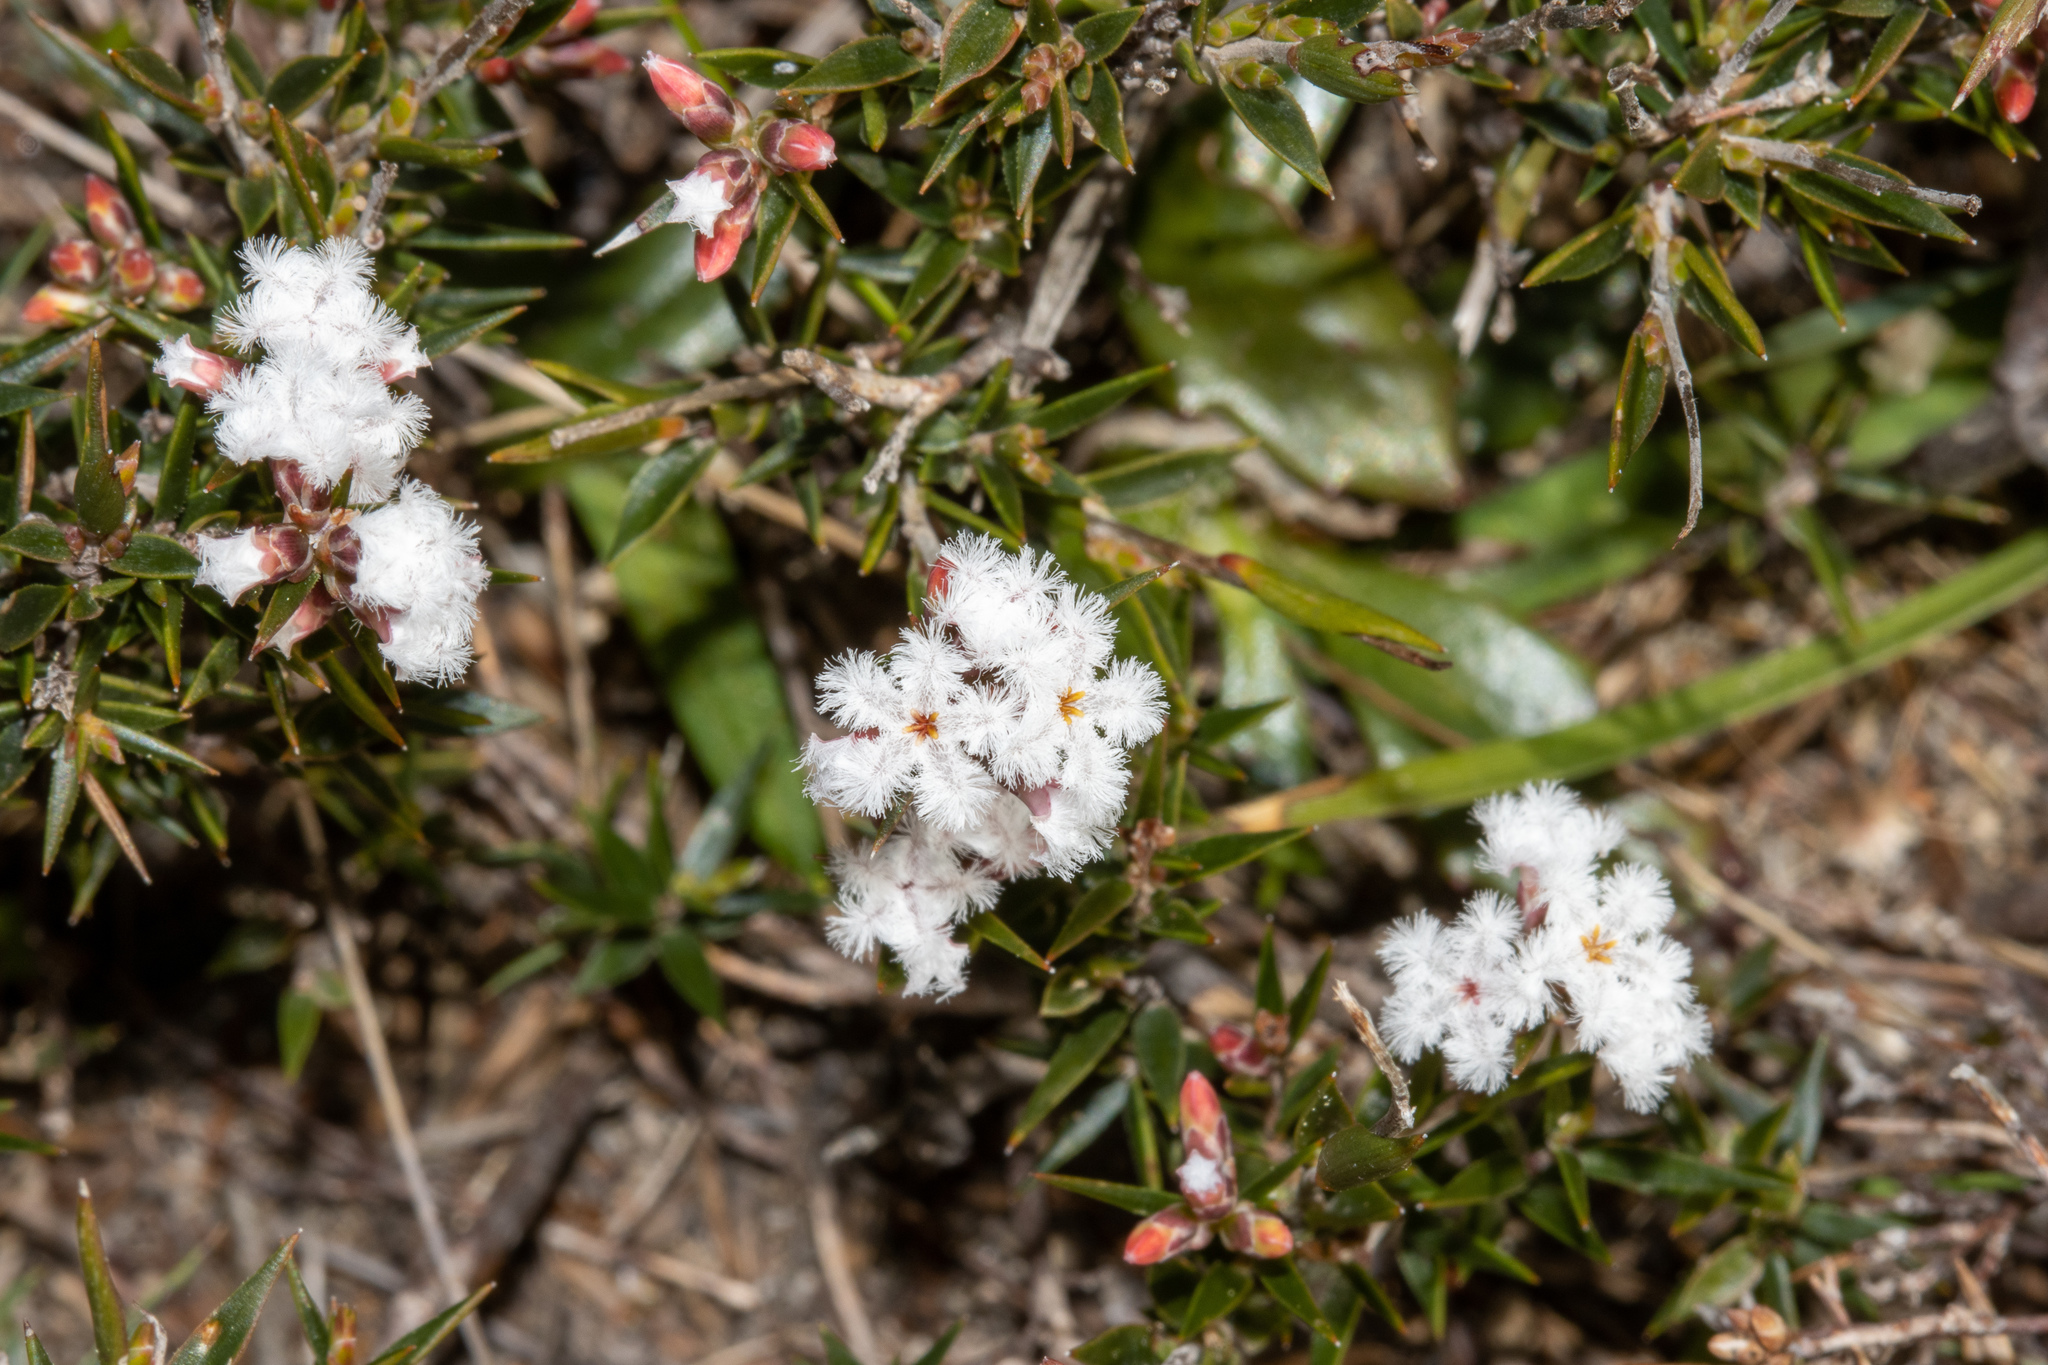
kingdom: Plantae
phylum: Tracheophyta
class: Magnoliopsida
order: Ericales
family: Ericaceae
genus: Leucopogon
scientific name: Leucopogon virgatus
